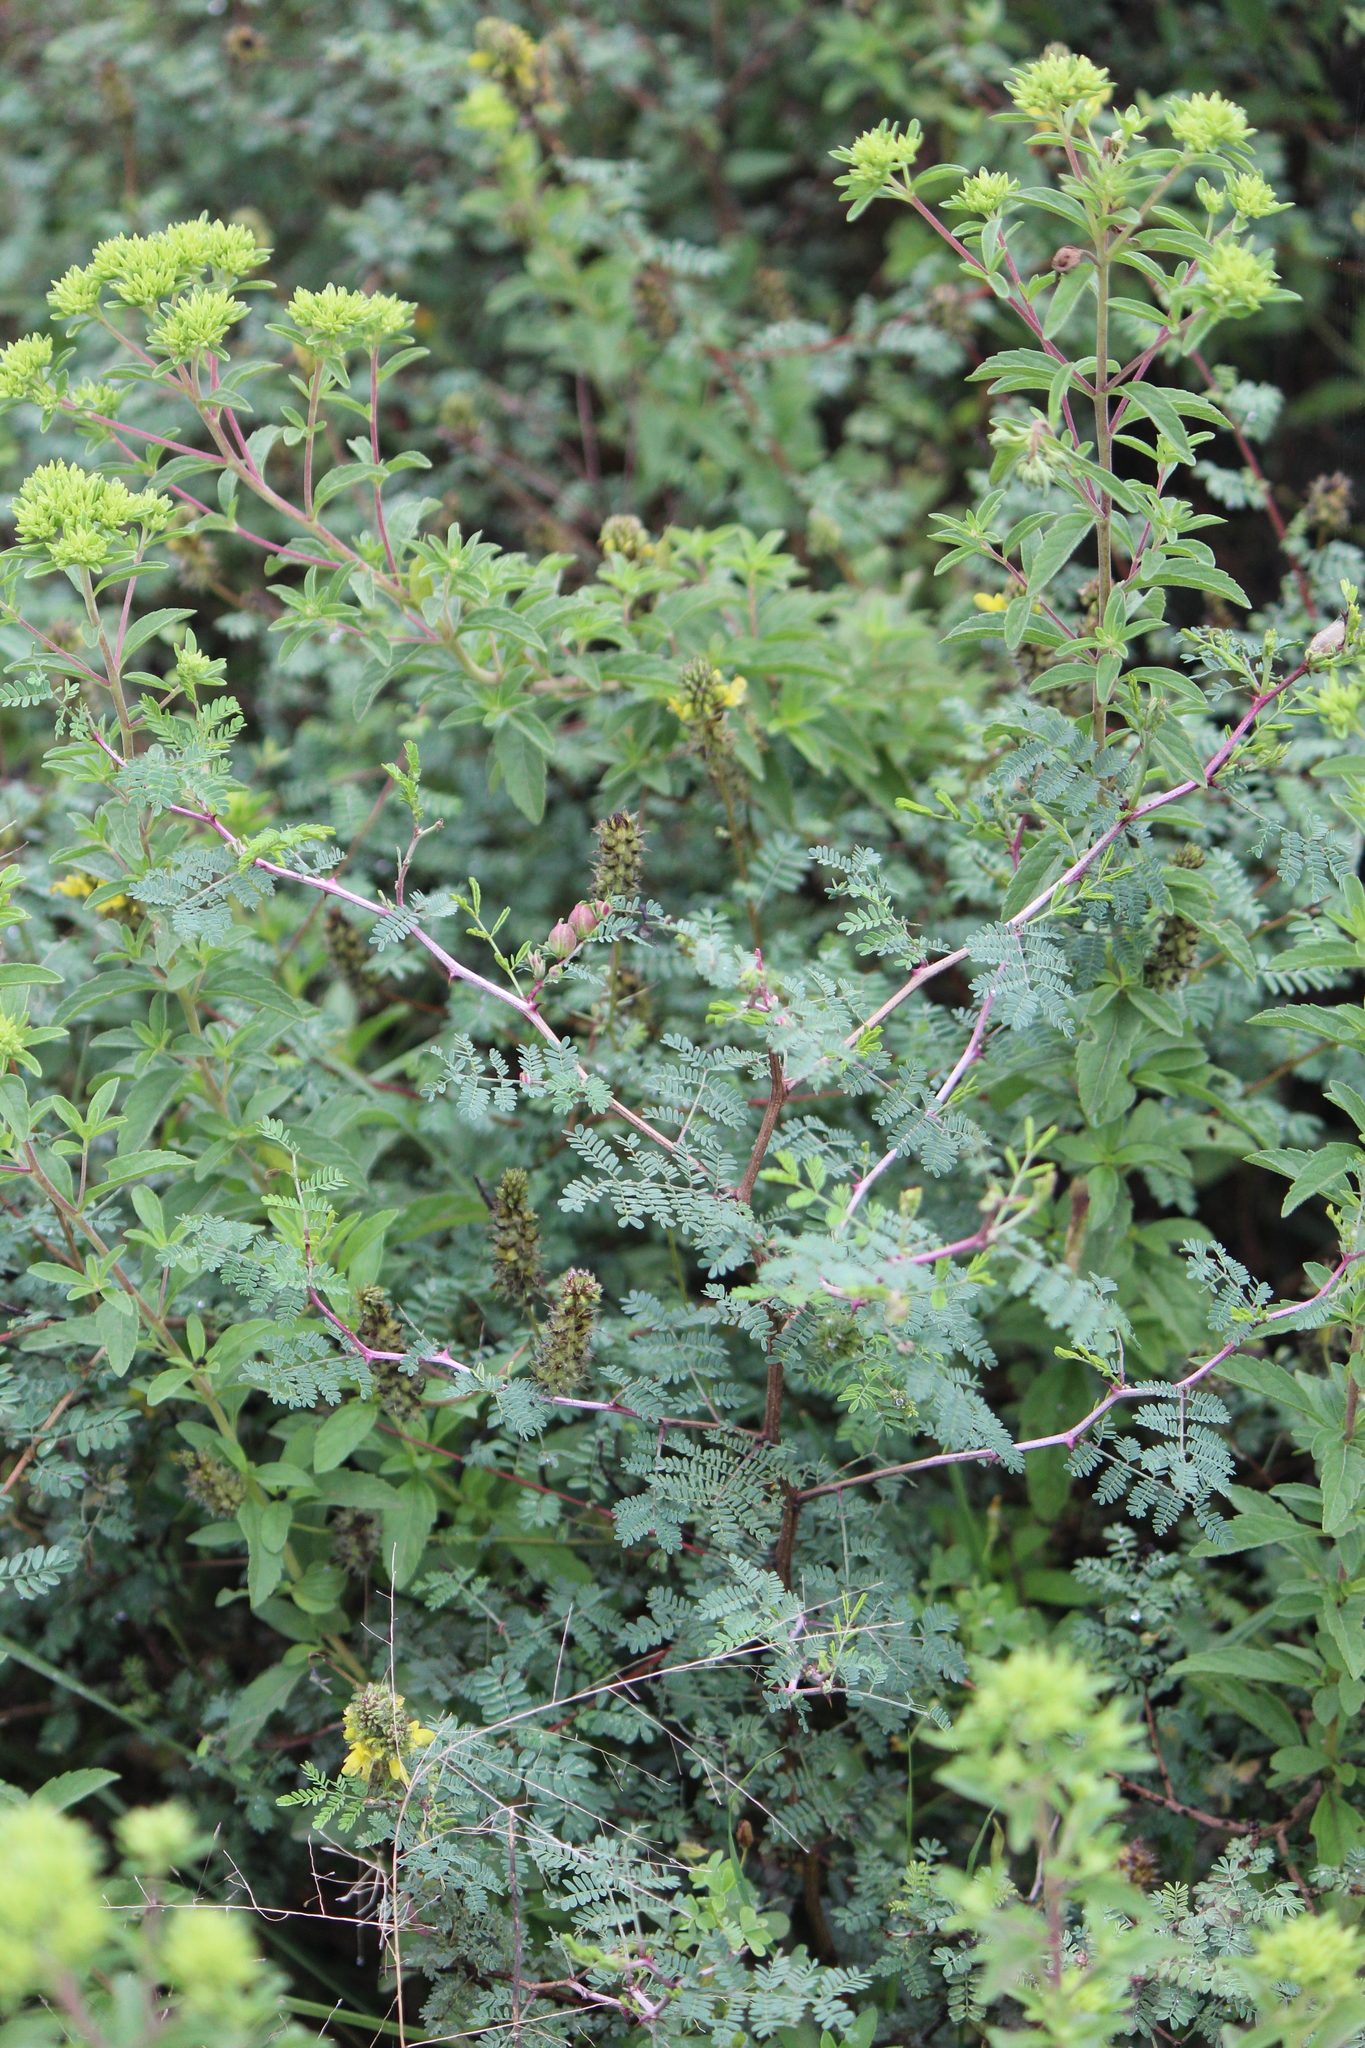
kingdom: Plantae
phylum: Tracheophyta
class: Magnoliopsida
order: Fabales
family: Fabaceae
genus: Dalea
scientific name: Dalea lutea
